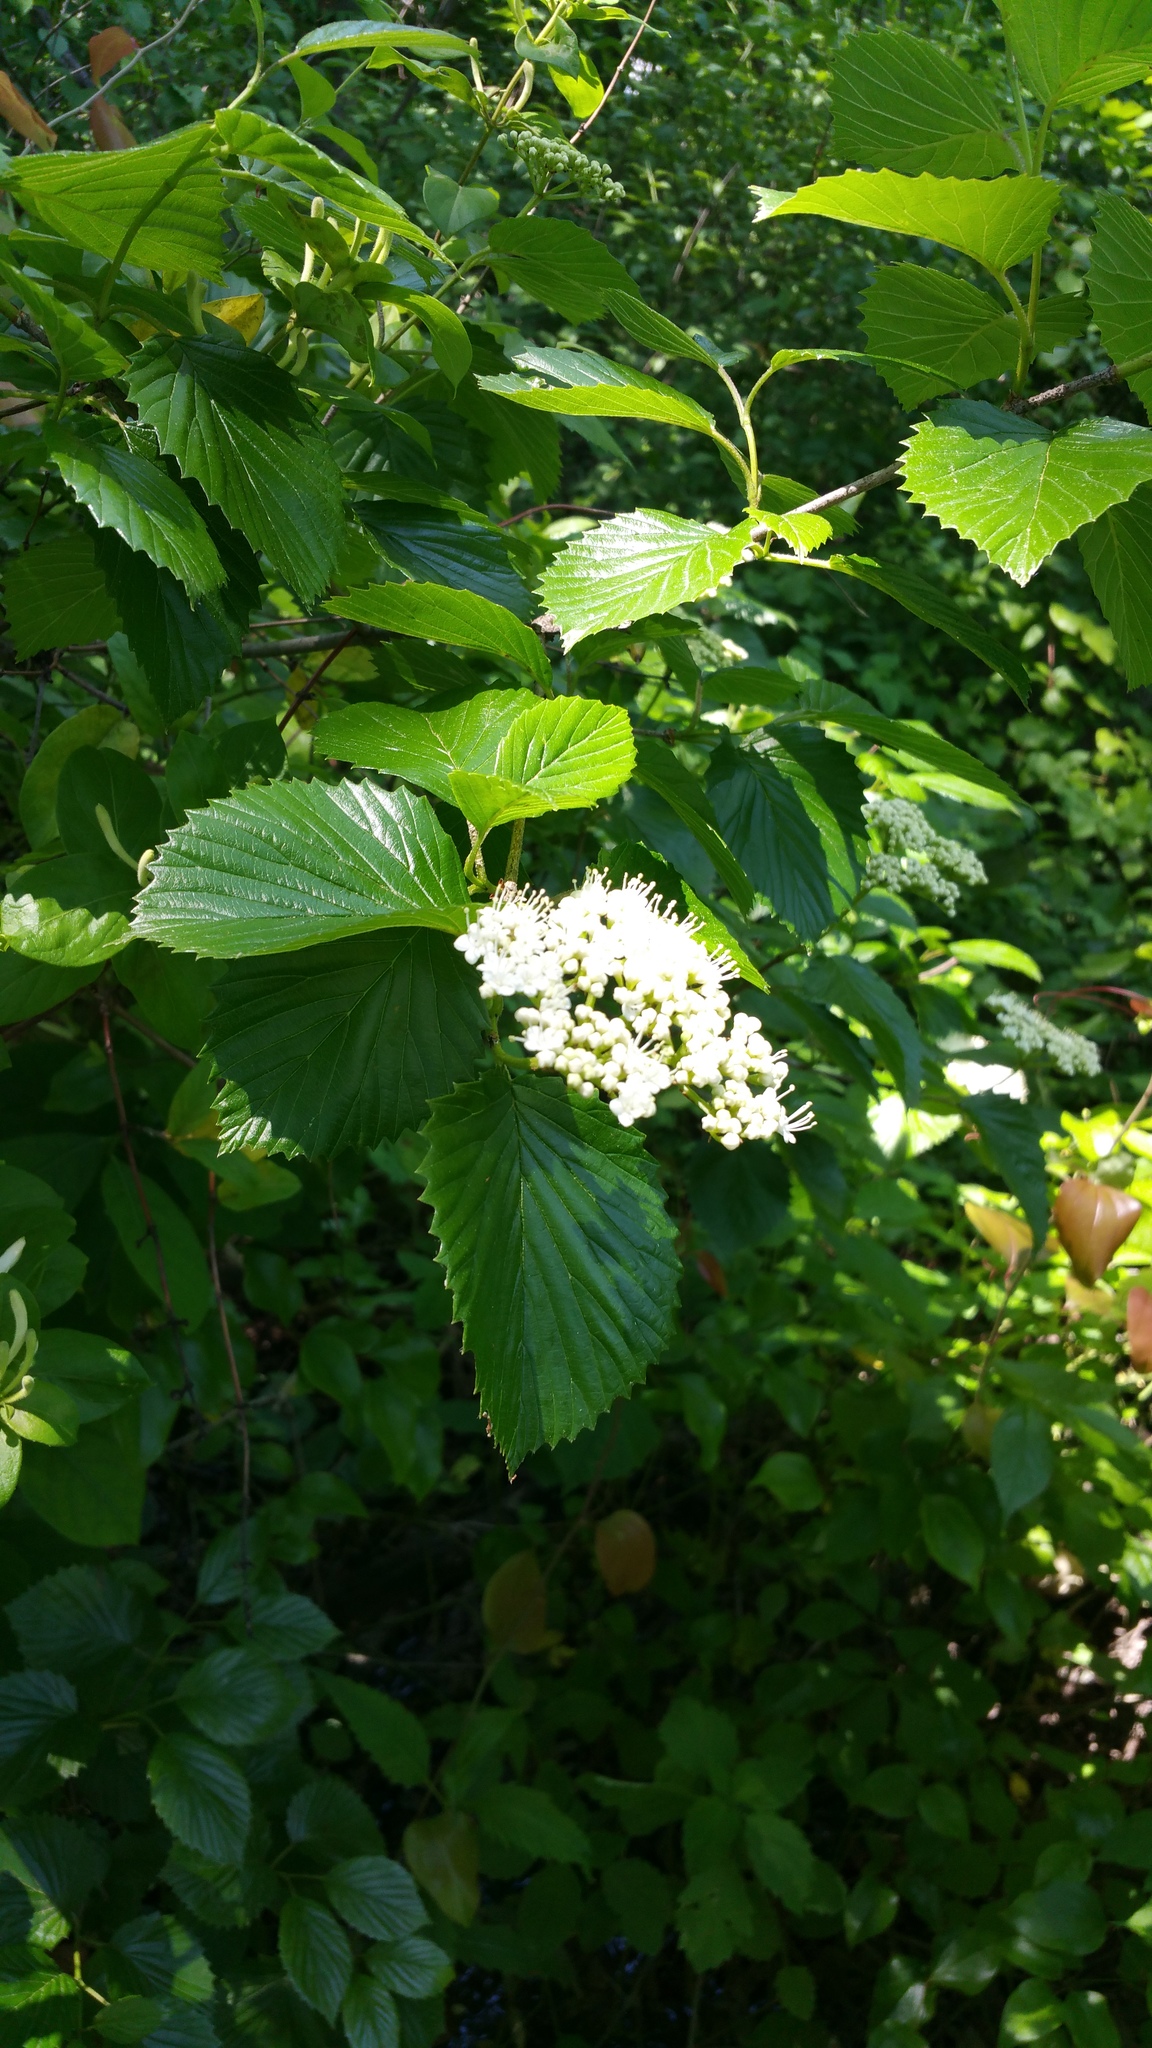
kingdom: Plantae
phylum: Tracheophyta
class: Magnoliopsida
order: Dipsacales
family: Viburnaceae
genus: Viburnum
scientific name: Viburnum dentatum
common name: Arrow-wood
